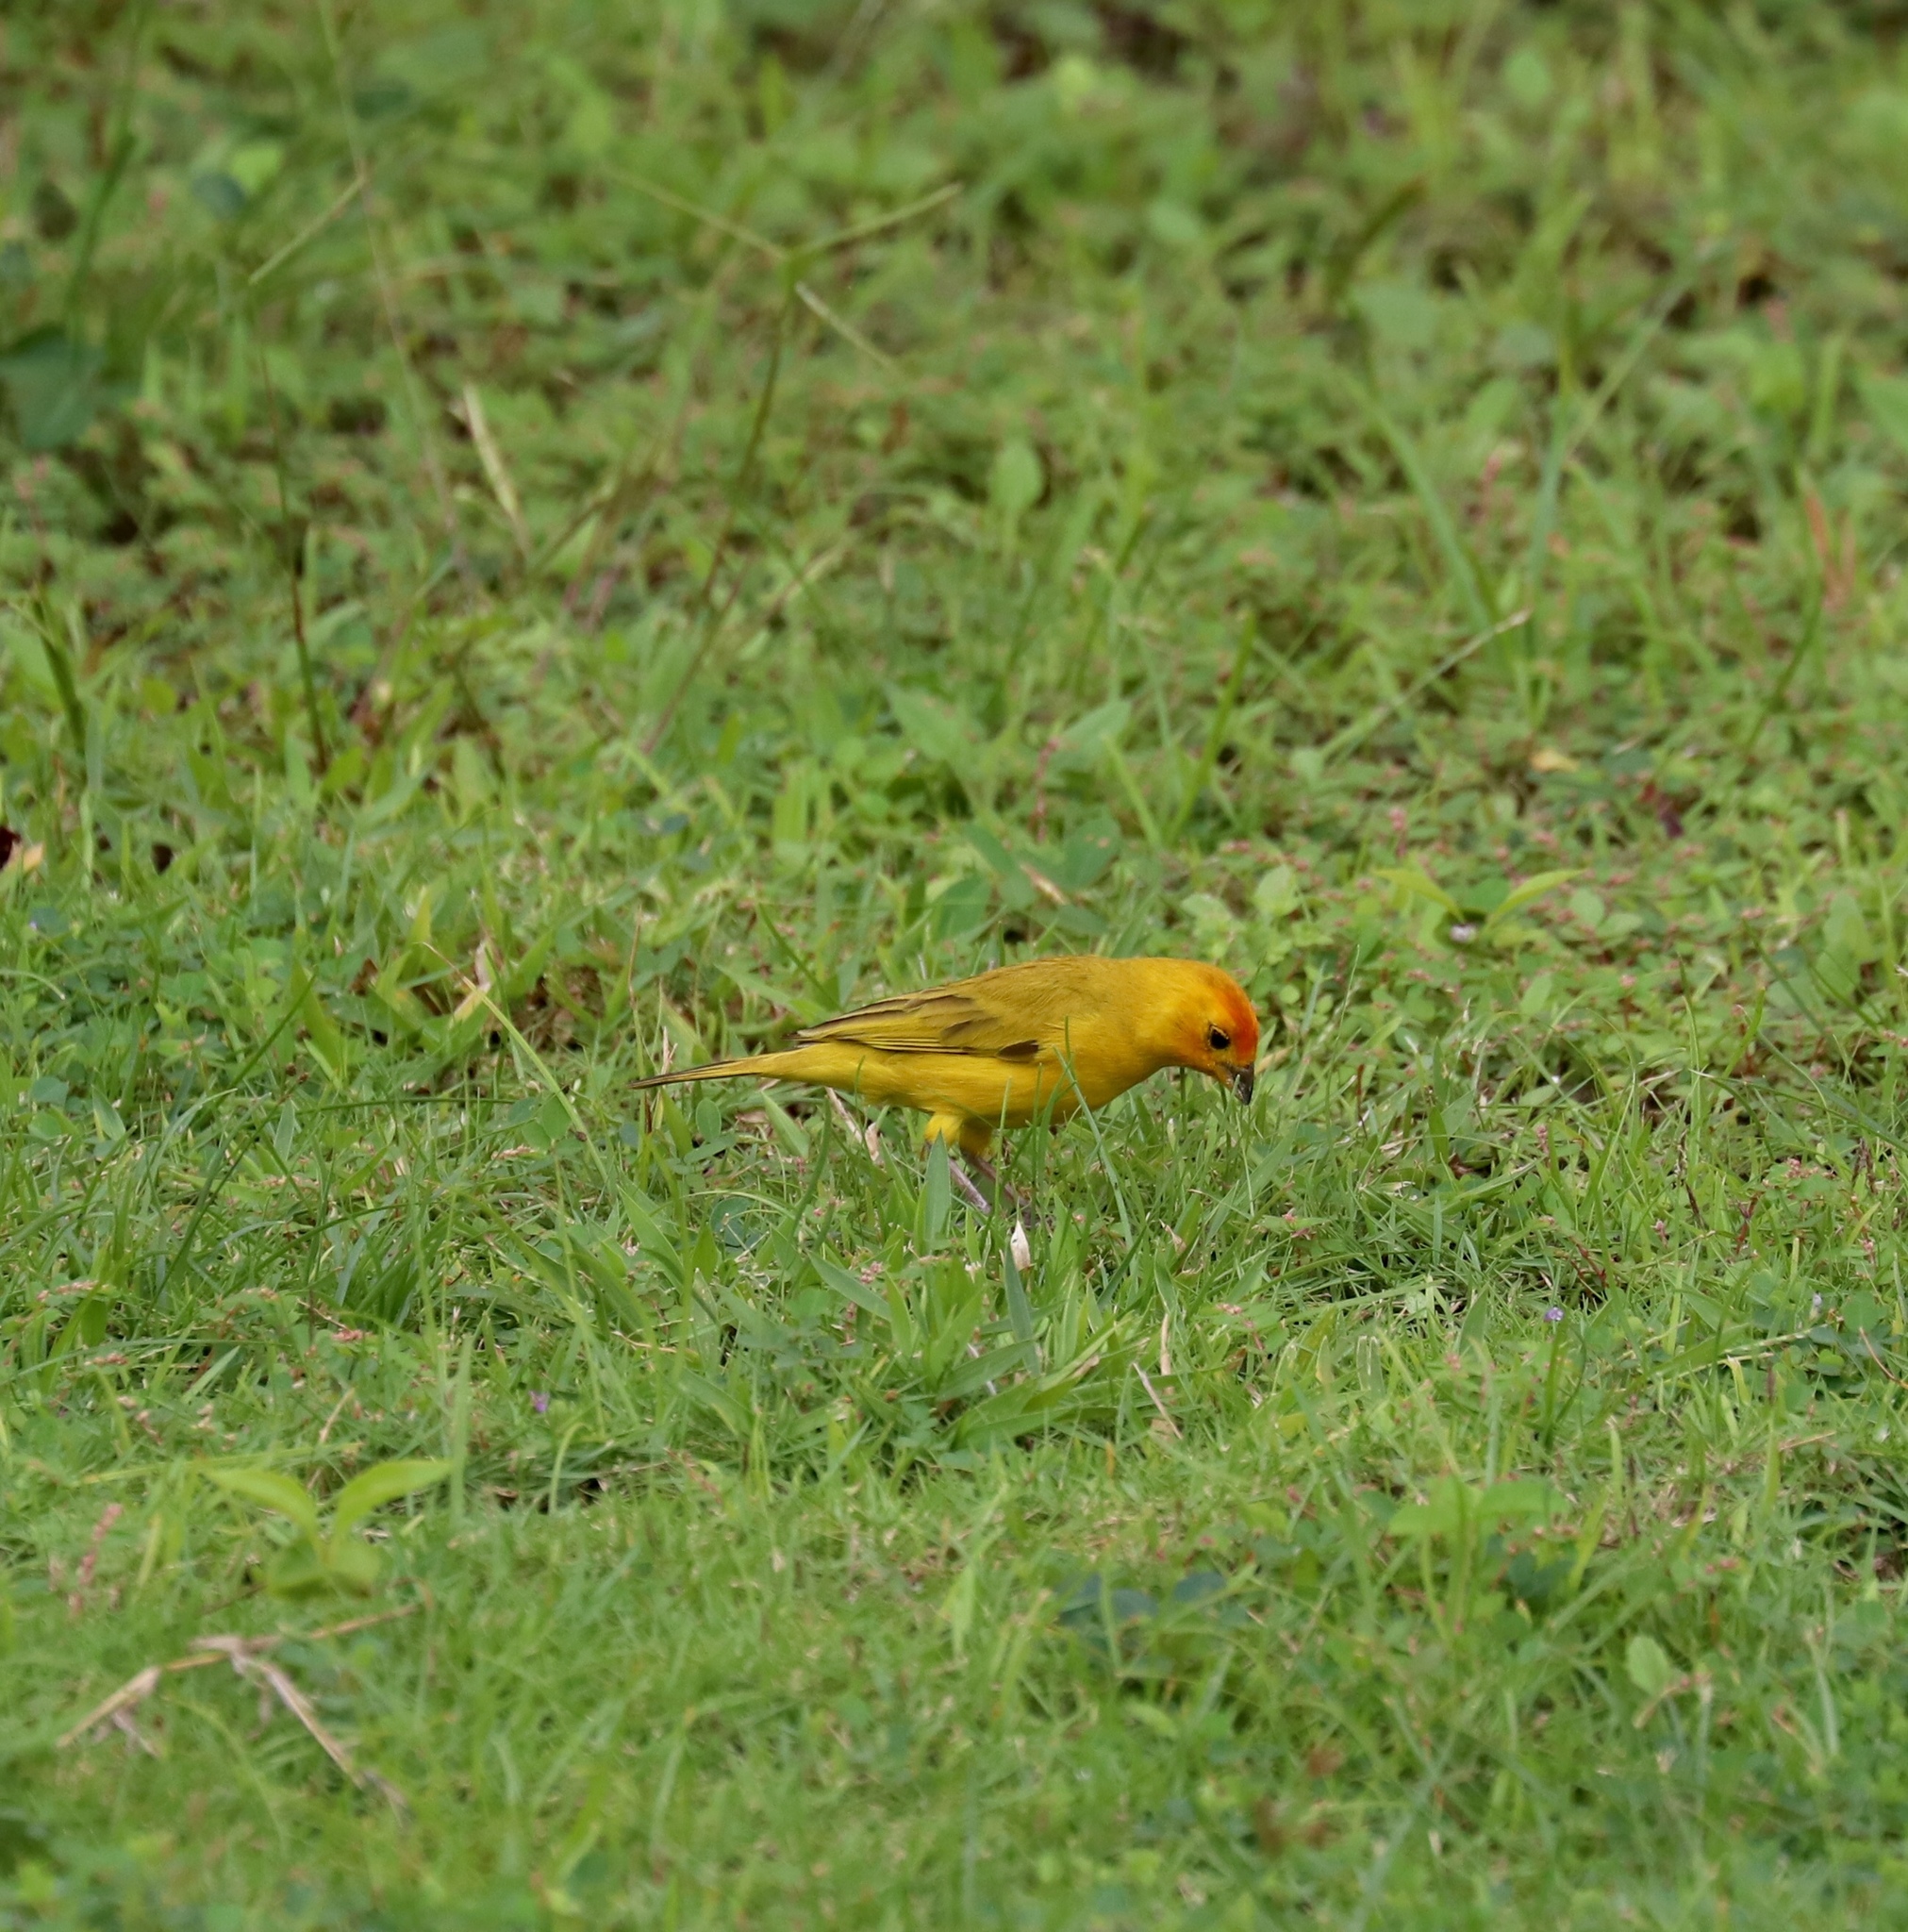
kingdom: Animalia
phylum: Chordata
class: Aves
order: Passeriformes
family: Thraupidae
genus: Sicalis
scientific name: Sicalis flaveola
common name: Saffron finch
